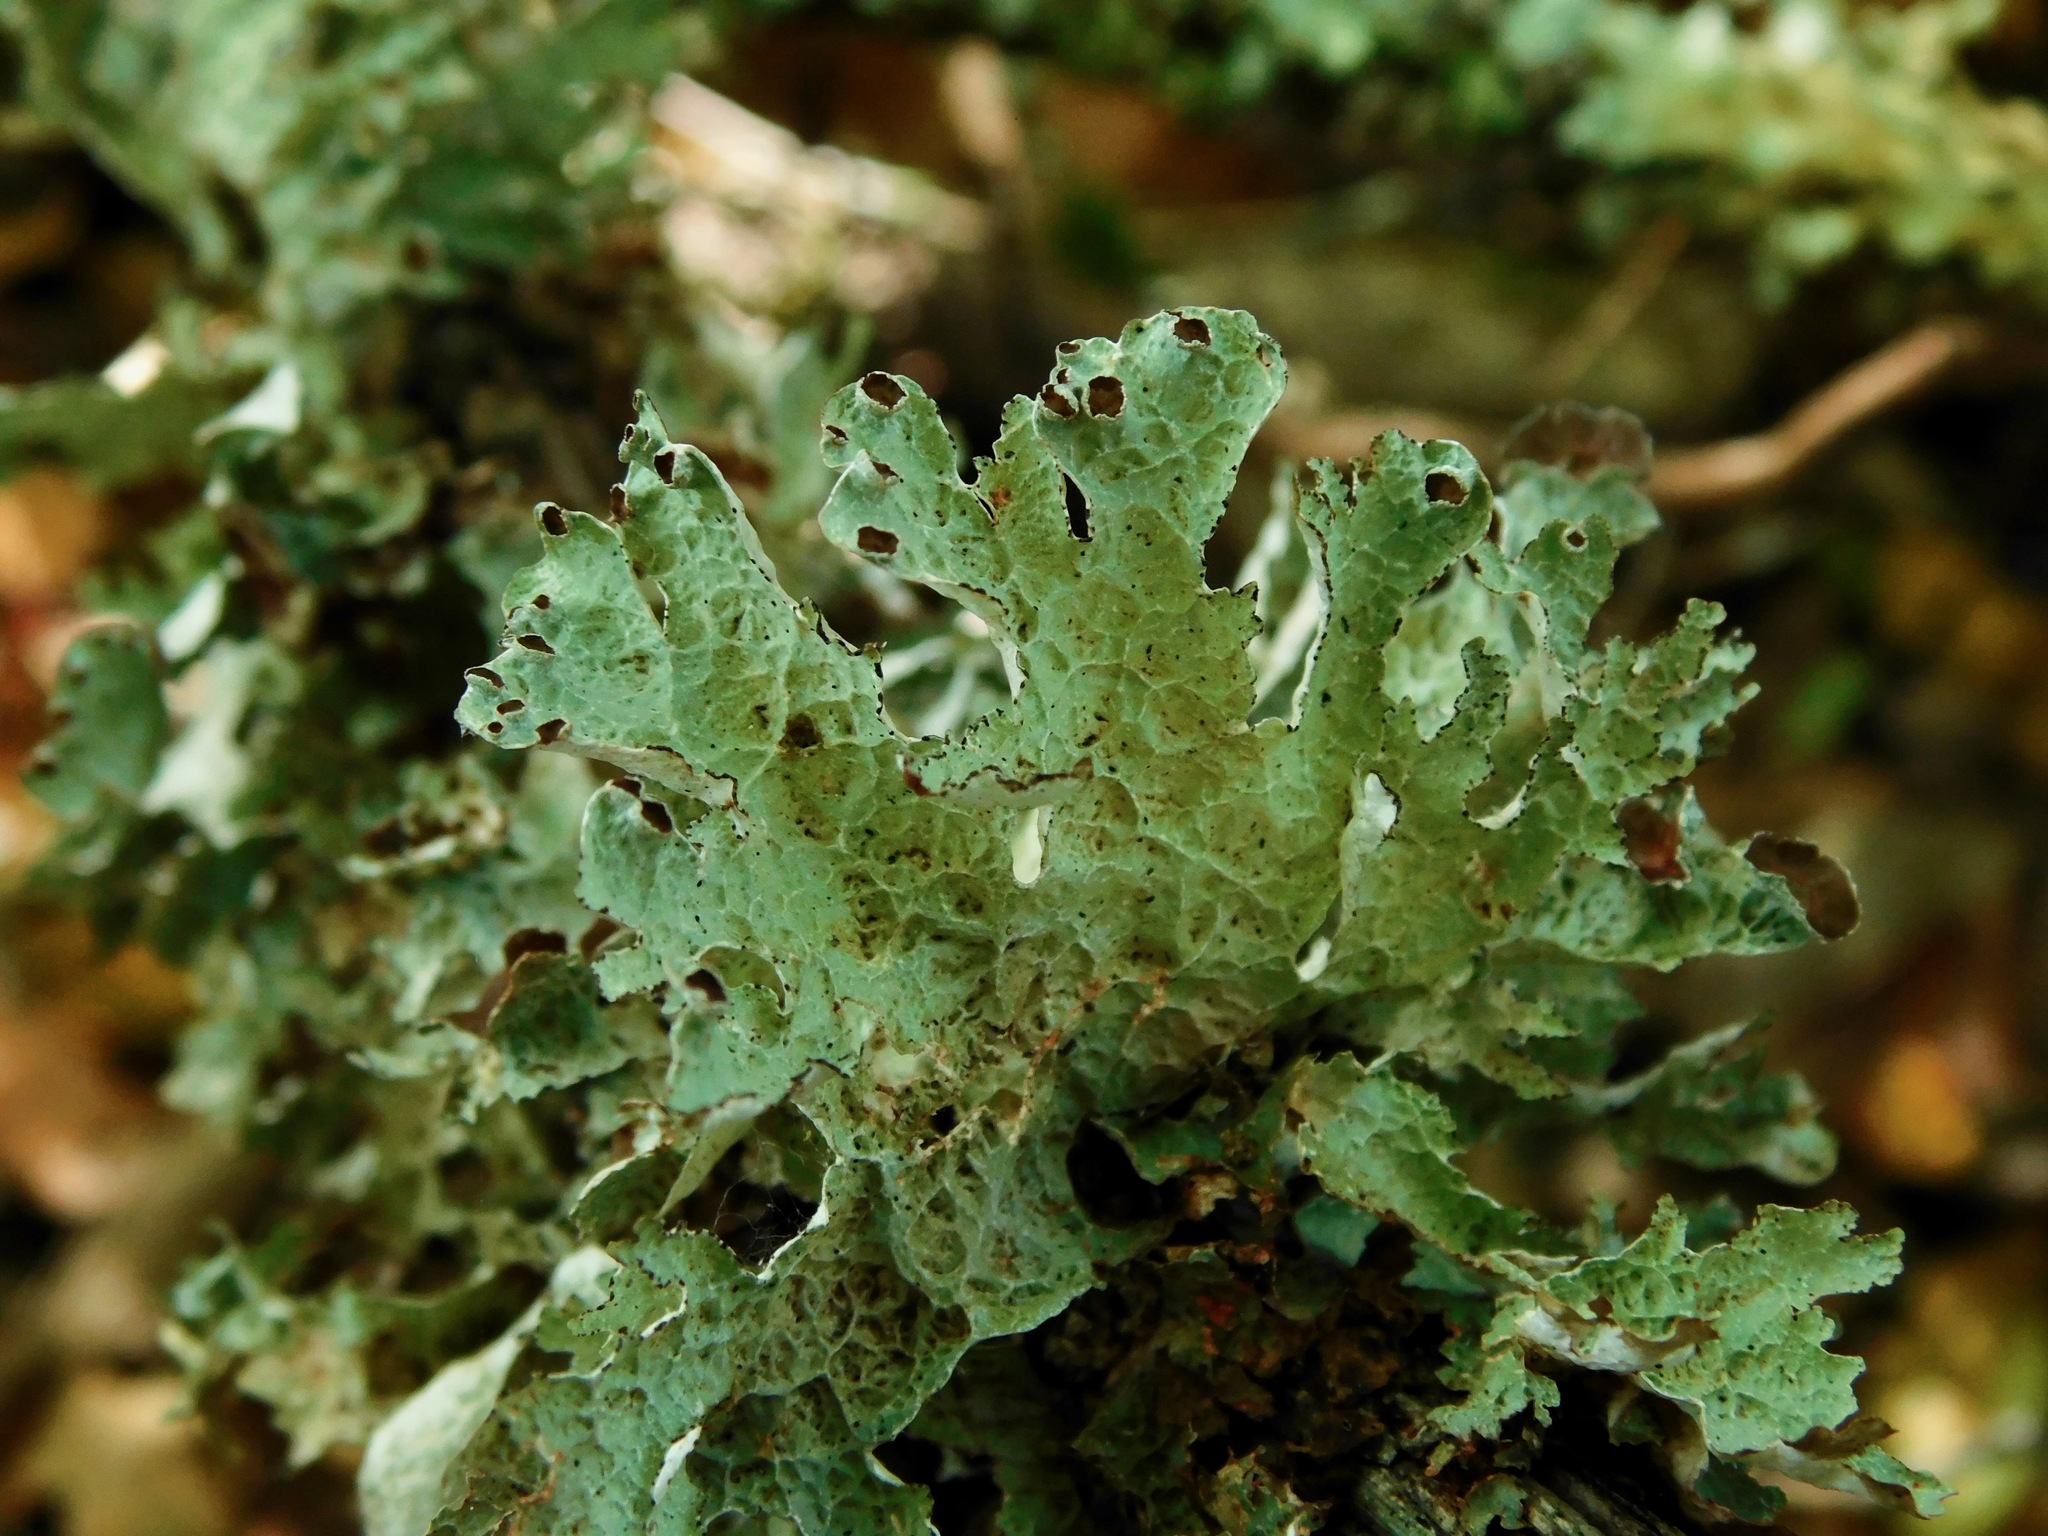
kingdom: Fungi
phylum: Ascomycota
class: Lecanoromycetes
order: Lecanorales
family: Parmeliaceae
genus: Platismatia
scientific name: Platismatia tuckermanii
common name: Crumpled rag lichen
